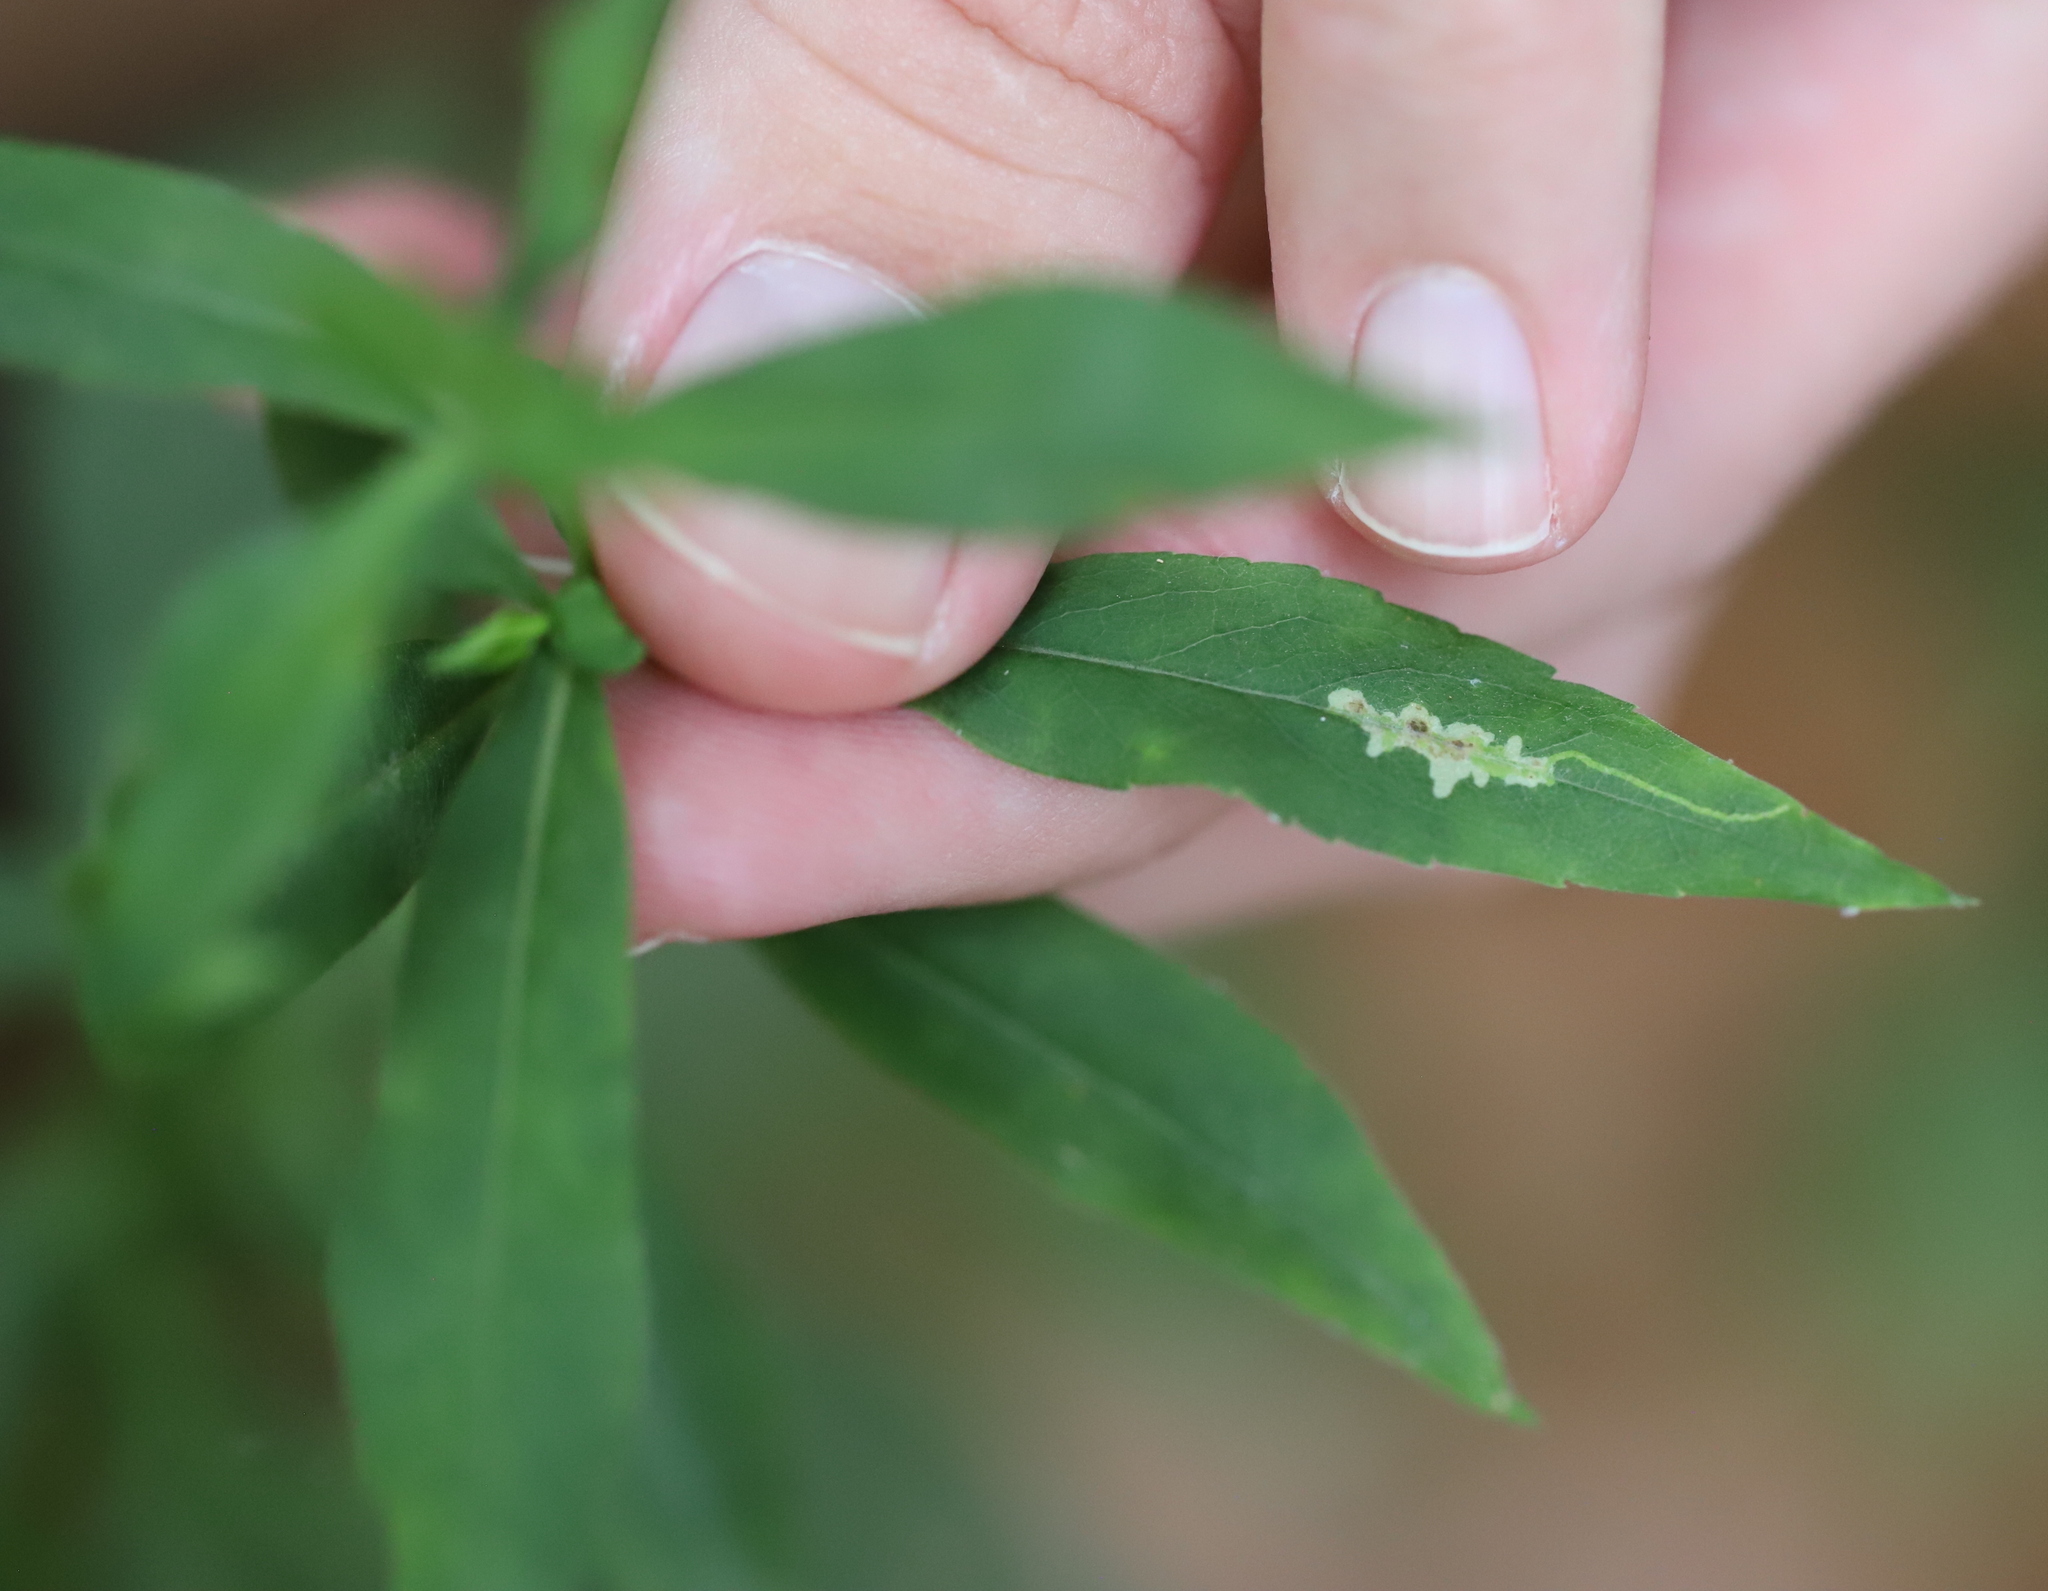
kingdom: Animalia
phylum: Arthropoda
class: Insecta
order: Diptera
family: Agromyzidae
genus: Calycomyza
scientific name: Calycomyza promissa
